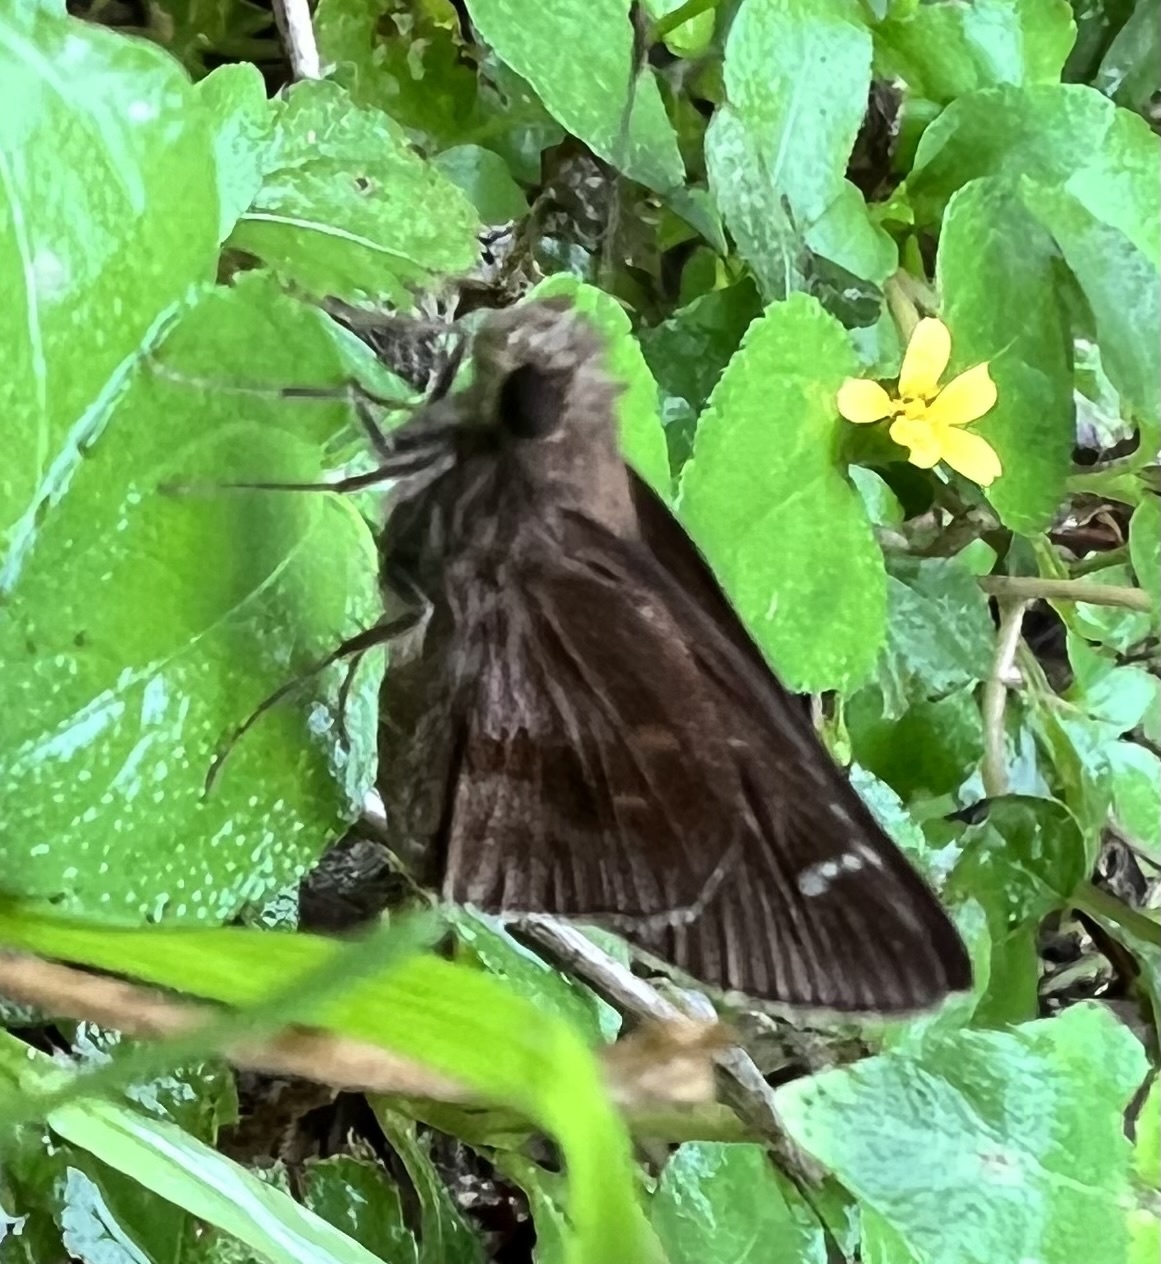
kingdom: Animalia
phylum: Arthropoda
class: Insecta
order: Lepidoptera
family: Hesperiidae
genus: Lerema
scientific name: Lerema accius
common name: Clouded skipper
